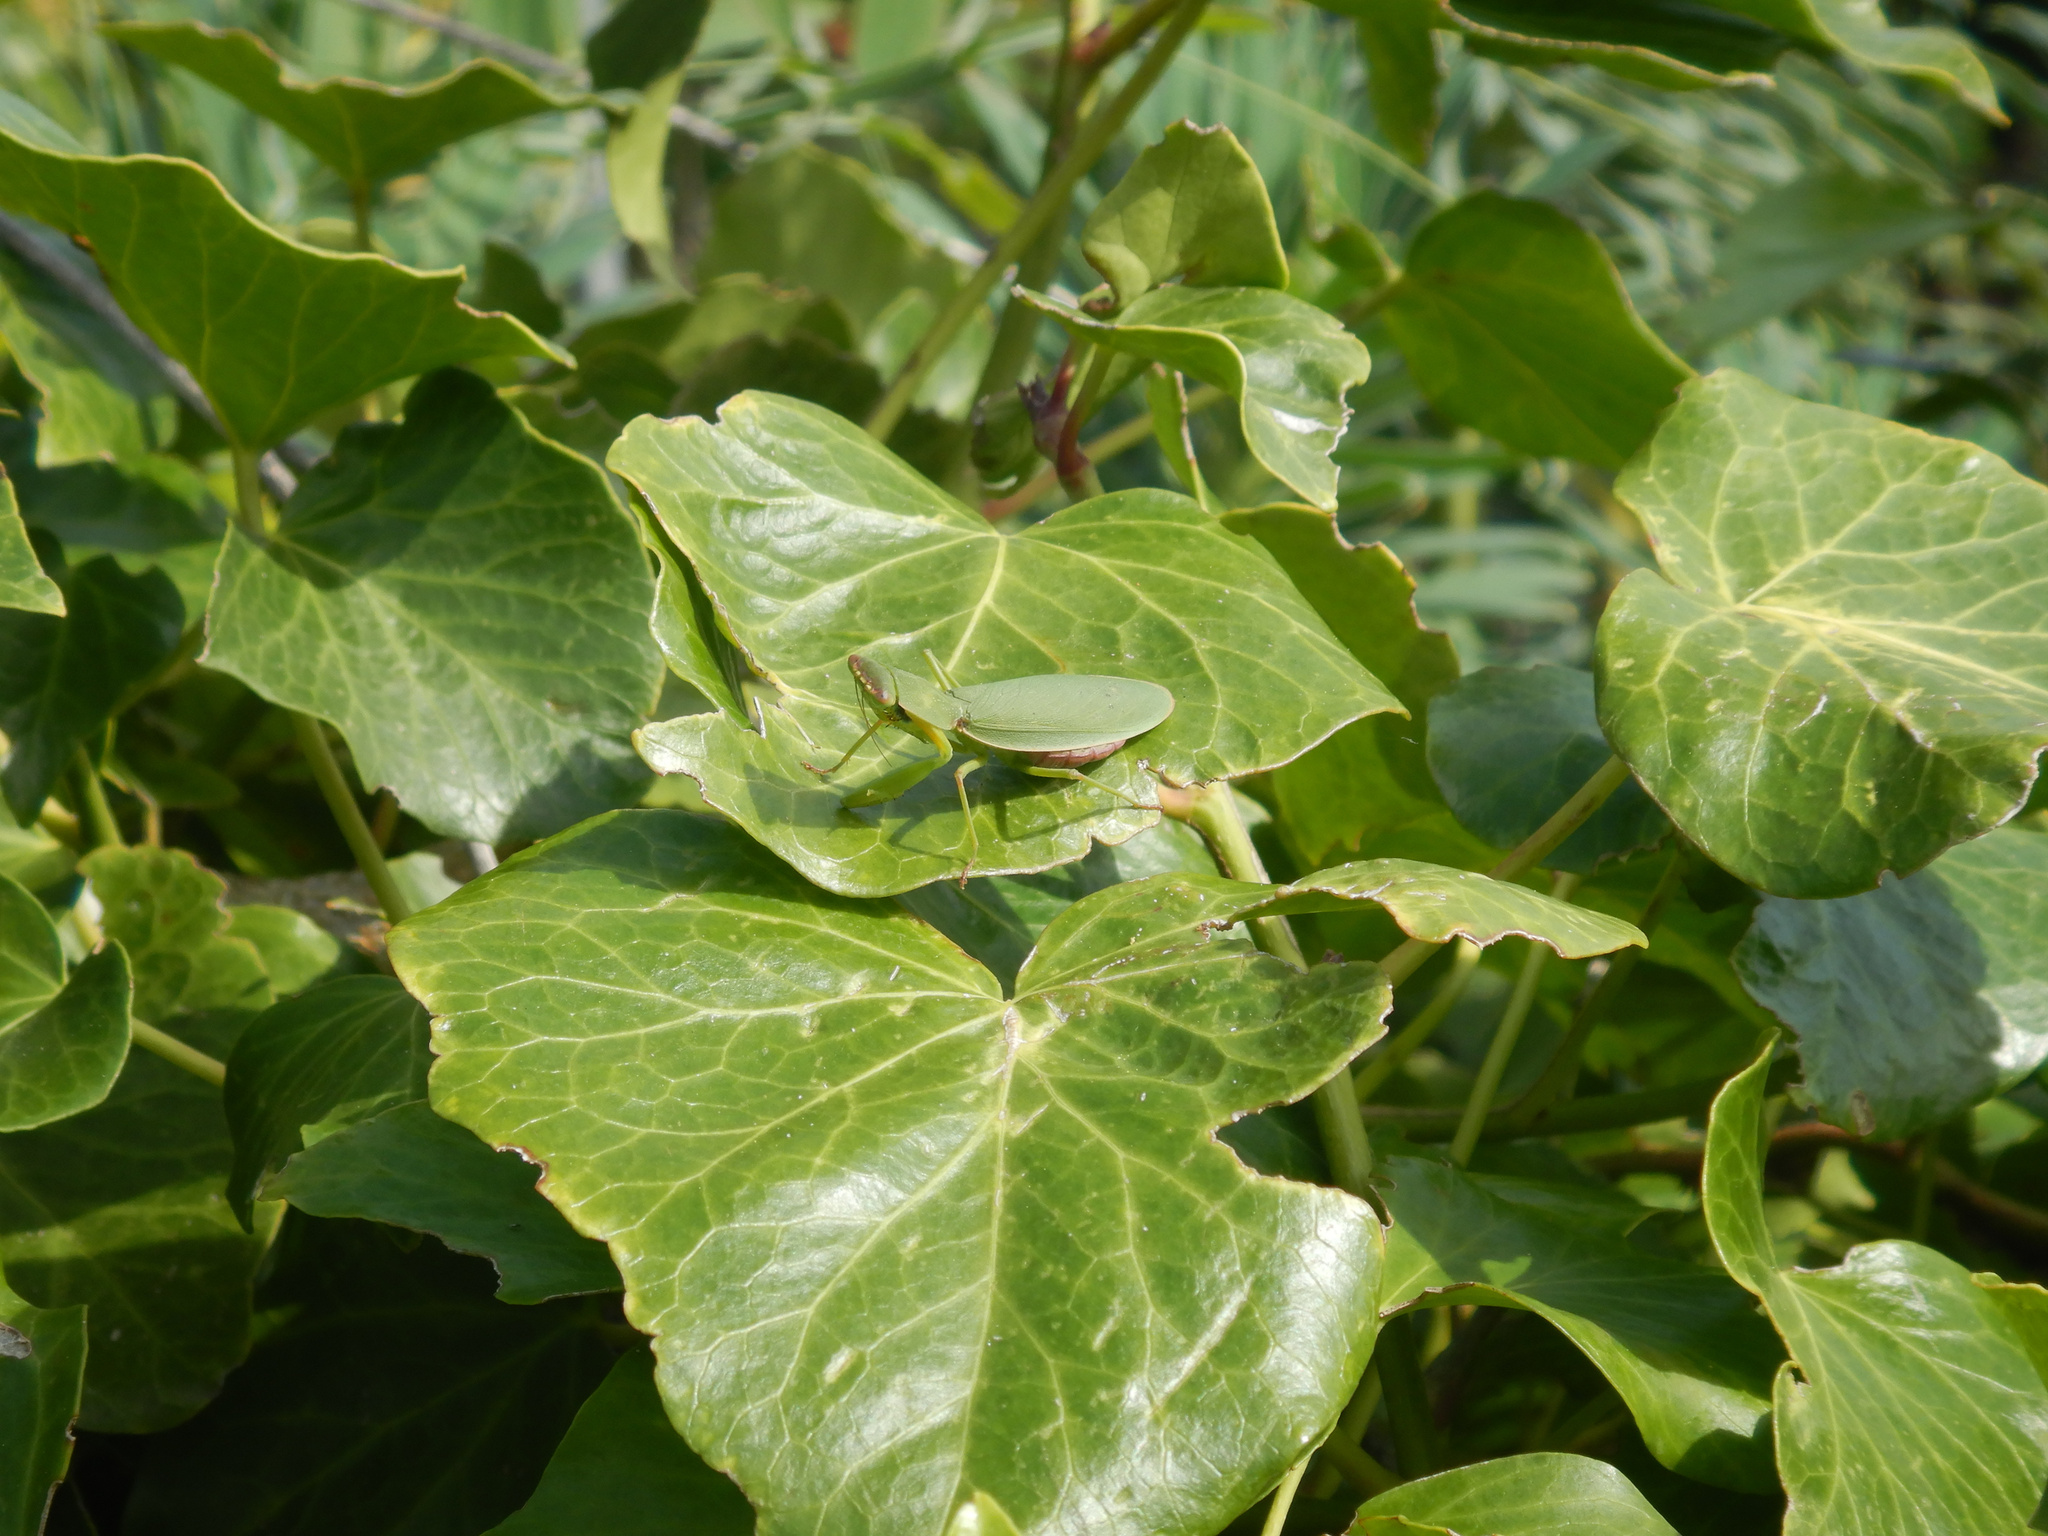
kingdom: Animalia
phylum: Arthropoda
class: Insecta
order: Mantodea
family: Mantidae
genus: Orthodera
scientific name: Orthodera novaezealandiae
